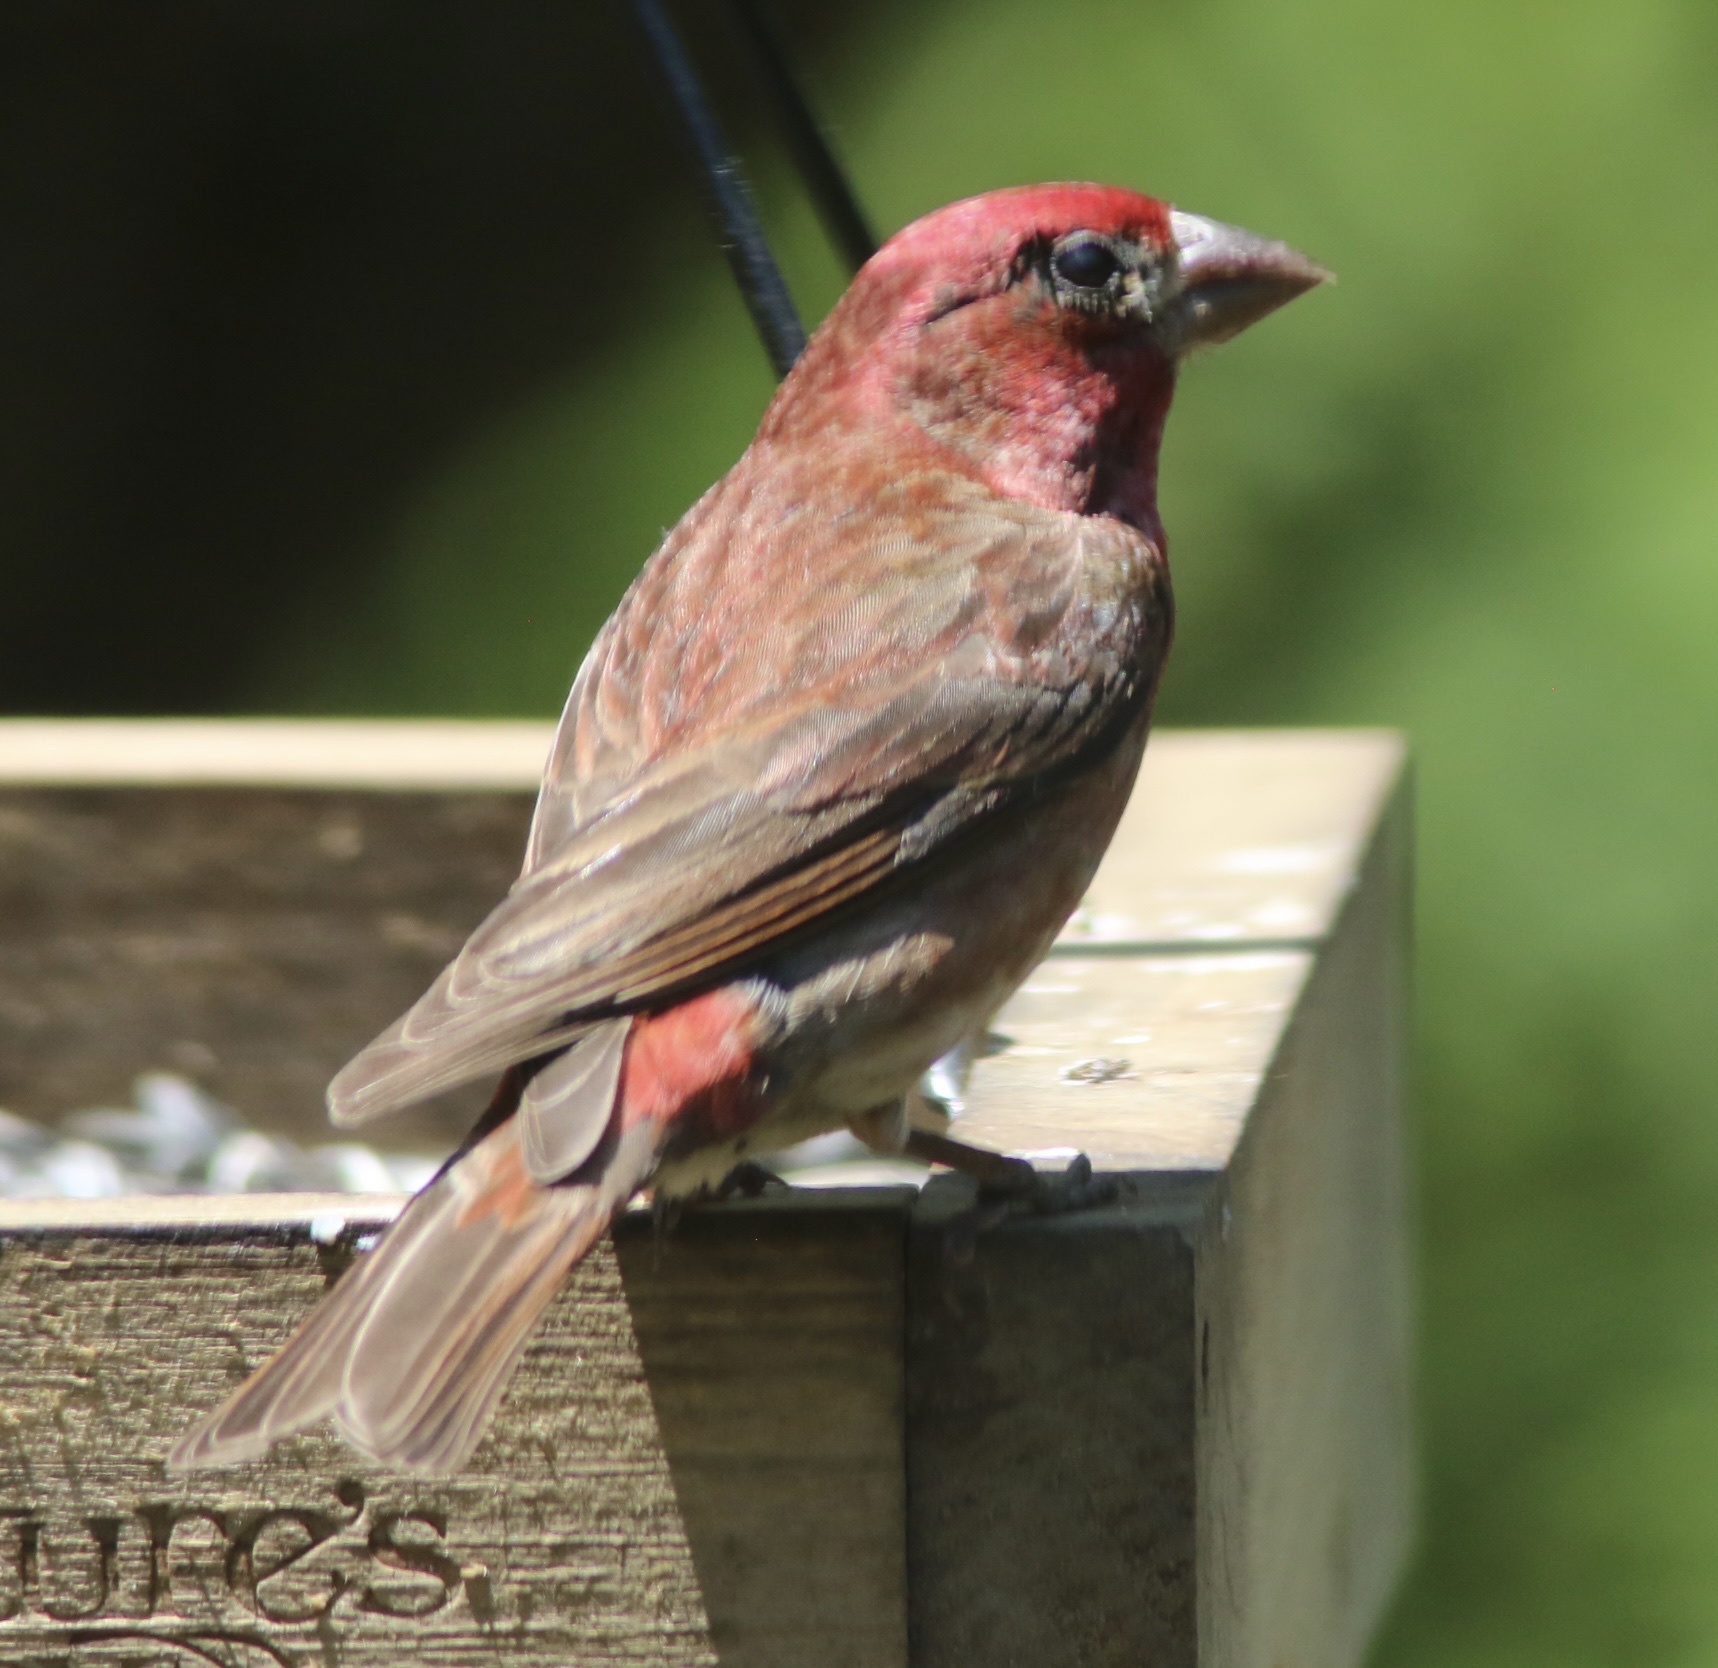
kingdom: Animalia
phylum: Chordata
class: Aves
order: Passeriformes
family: Fringillidae
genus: Haemorhous
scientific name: Haemorhous purpureus
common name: Purple finch
